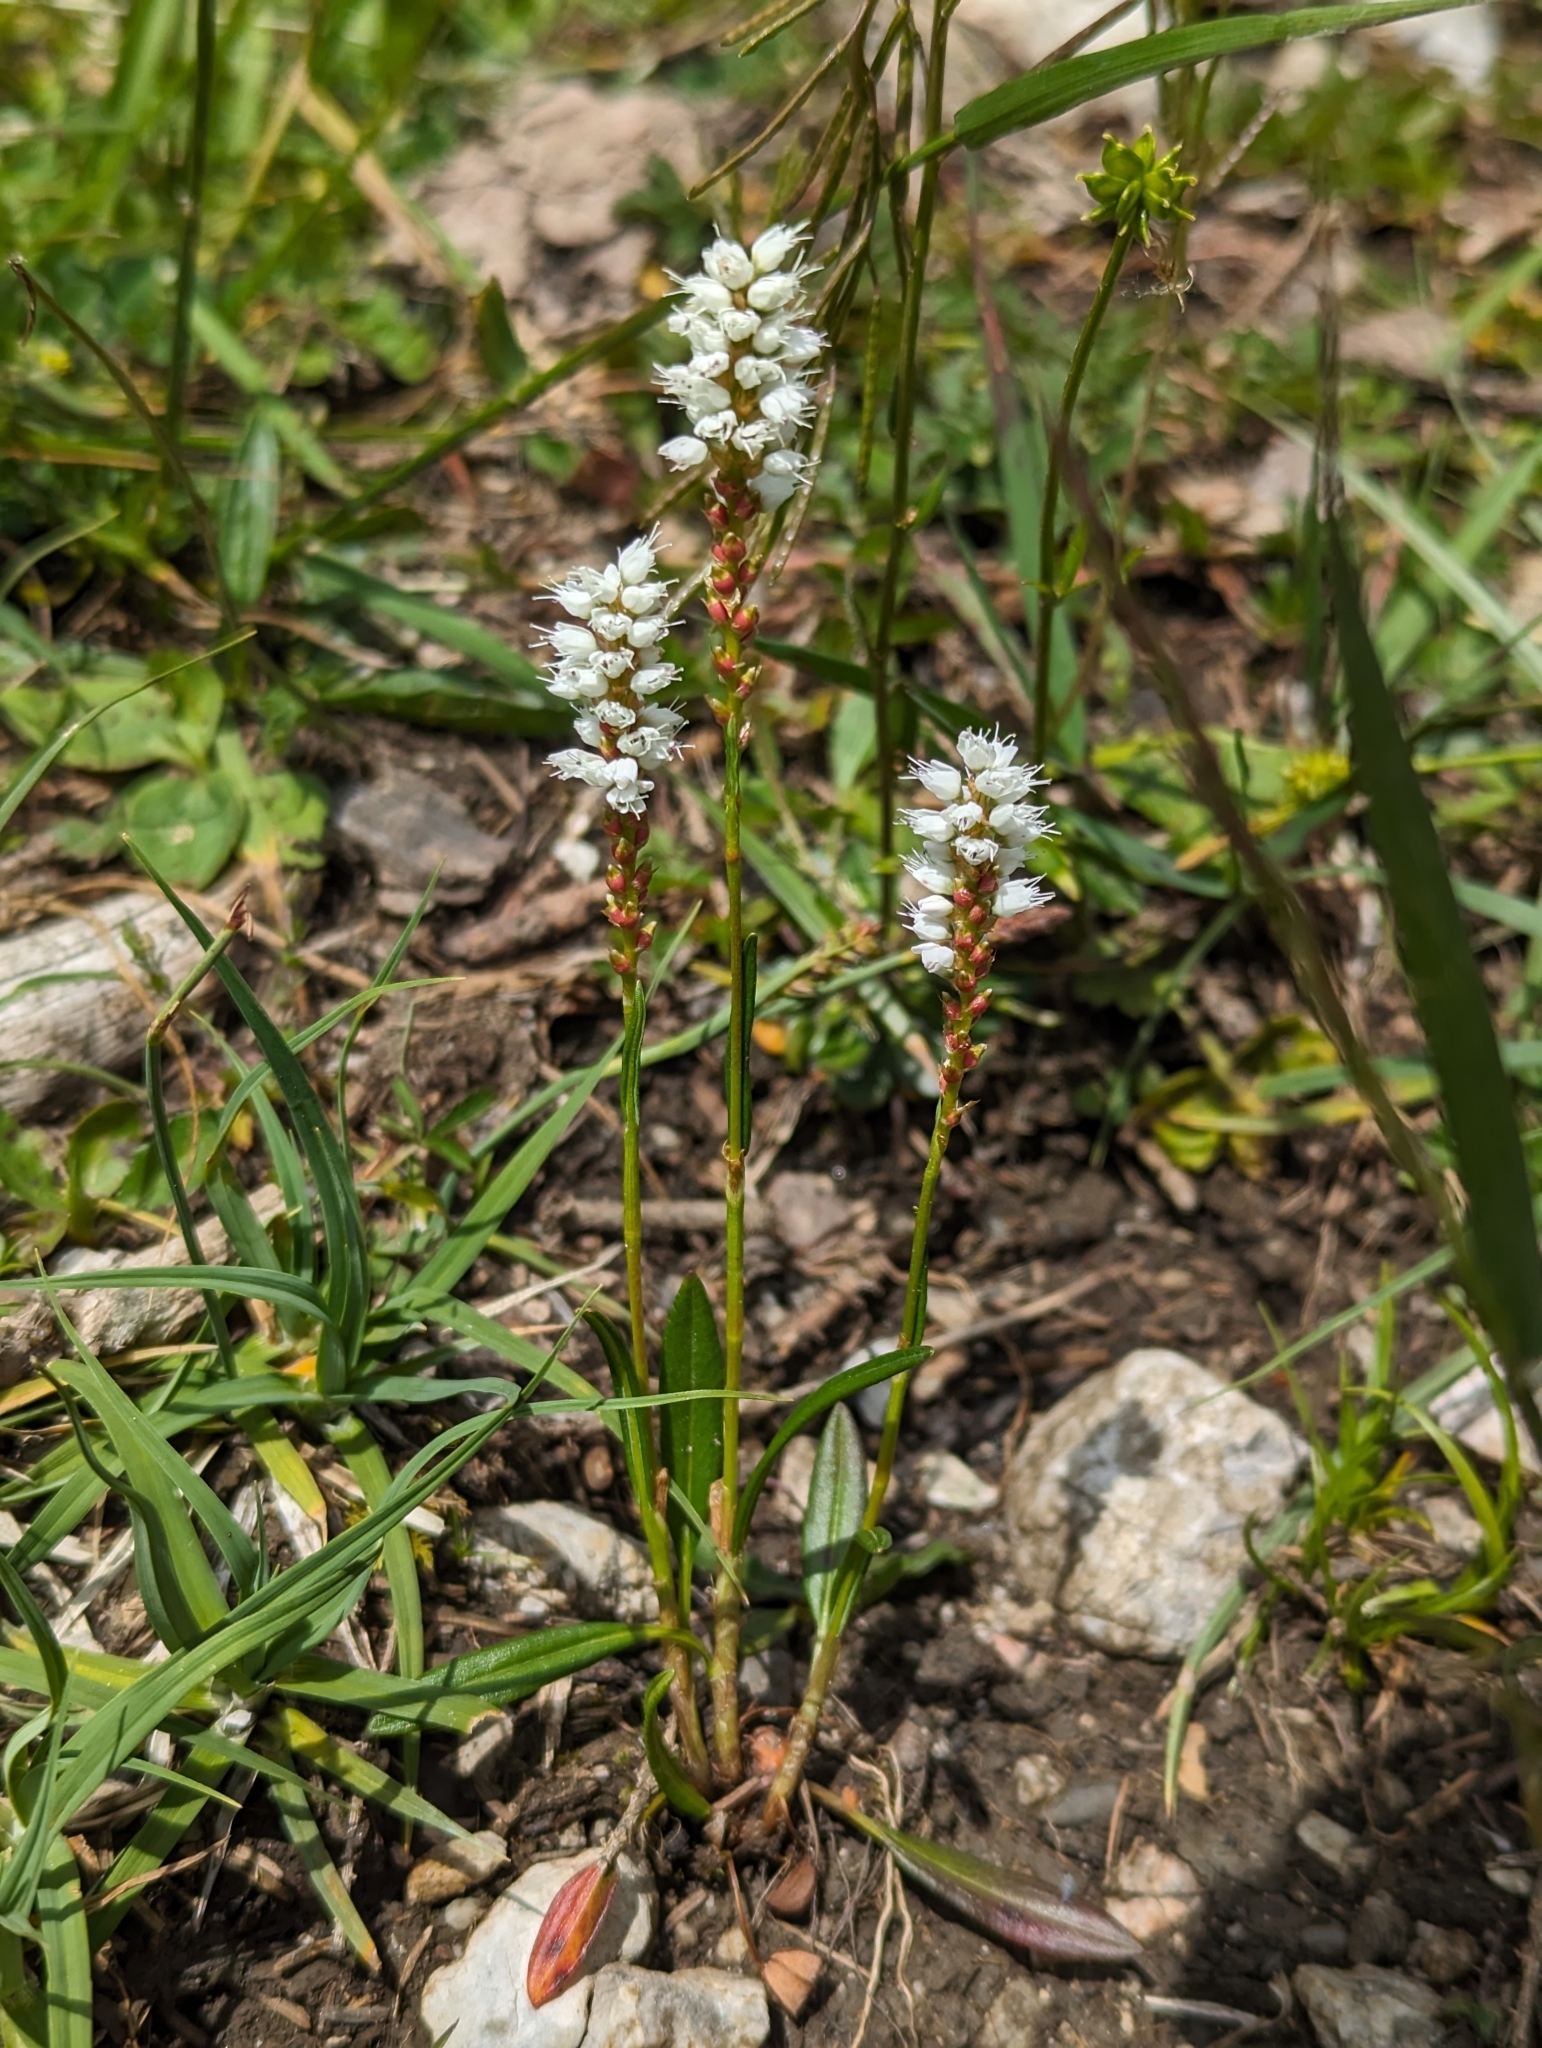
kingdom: Plantae
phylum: Tracheophyta
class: Magnoliopsida
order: Caryophyllales
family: Polygonaceae
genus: Bistorta
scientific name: Bistorta vivipara
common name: Alpine bistort
